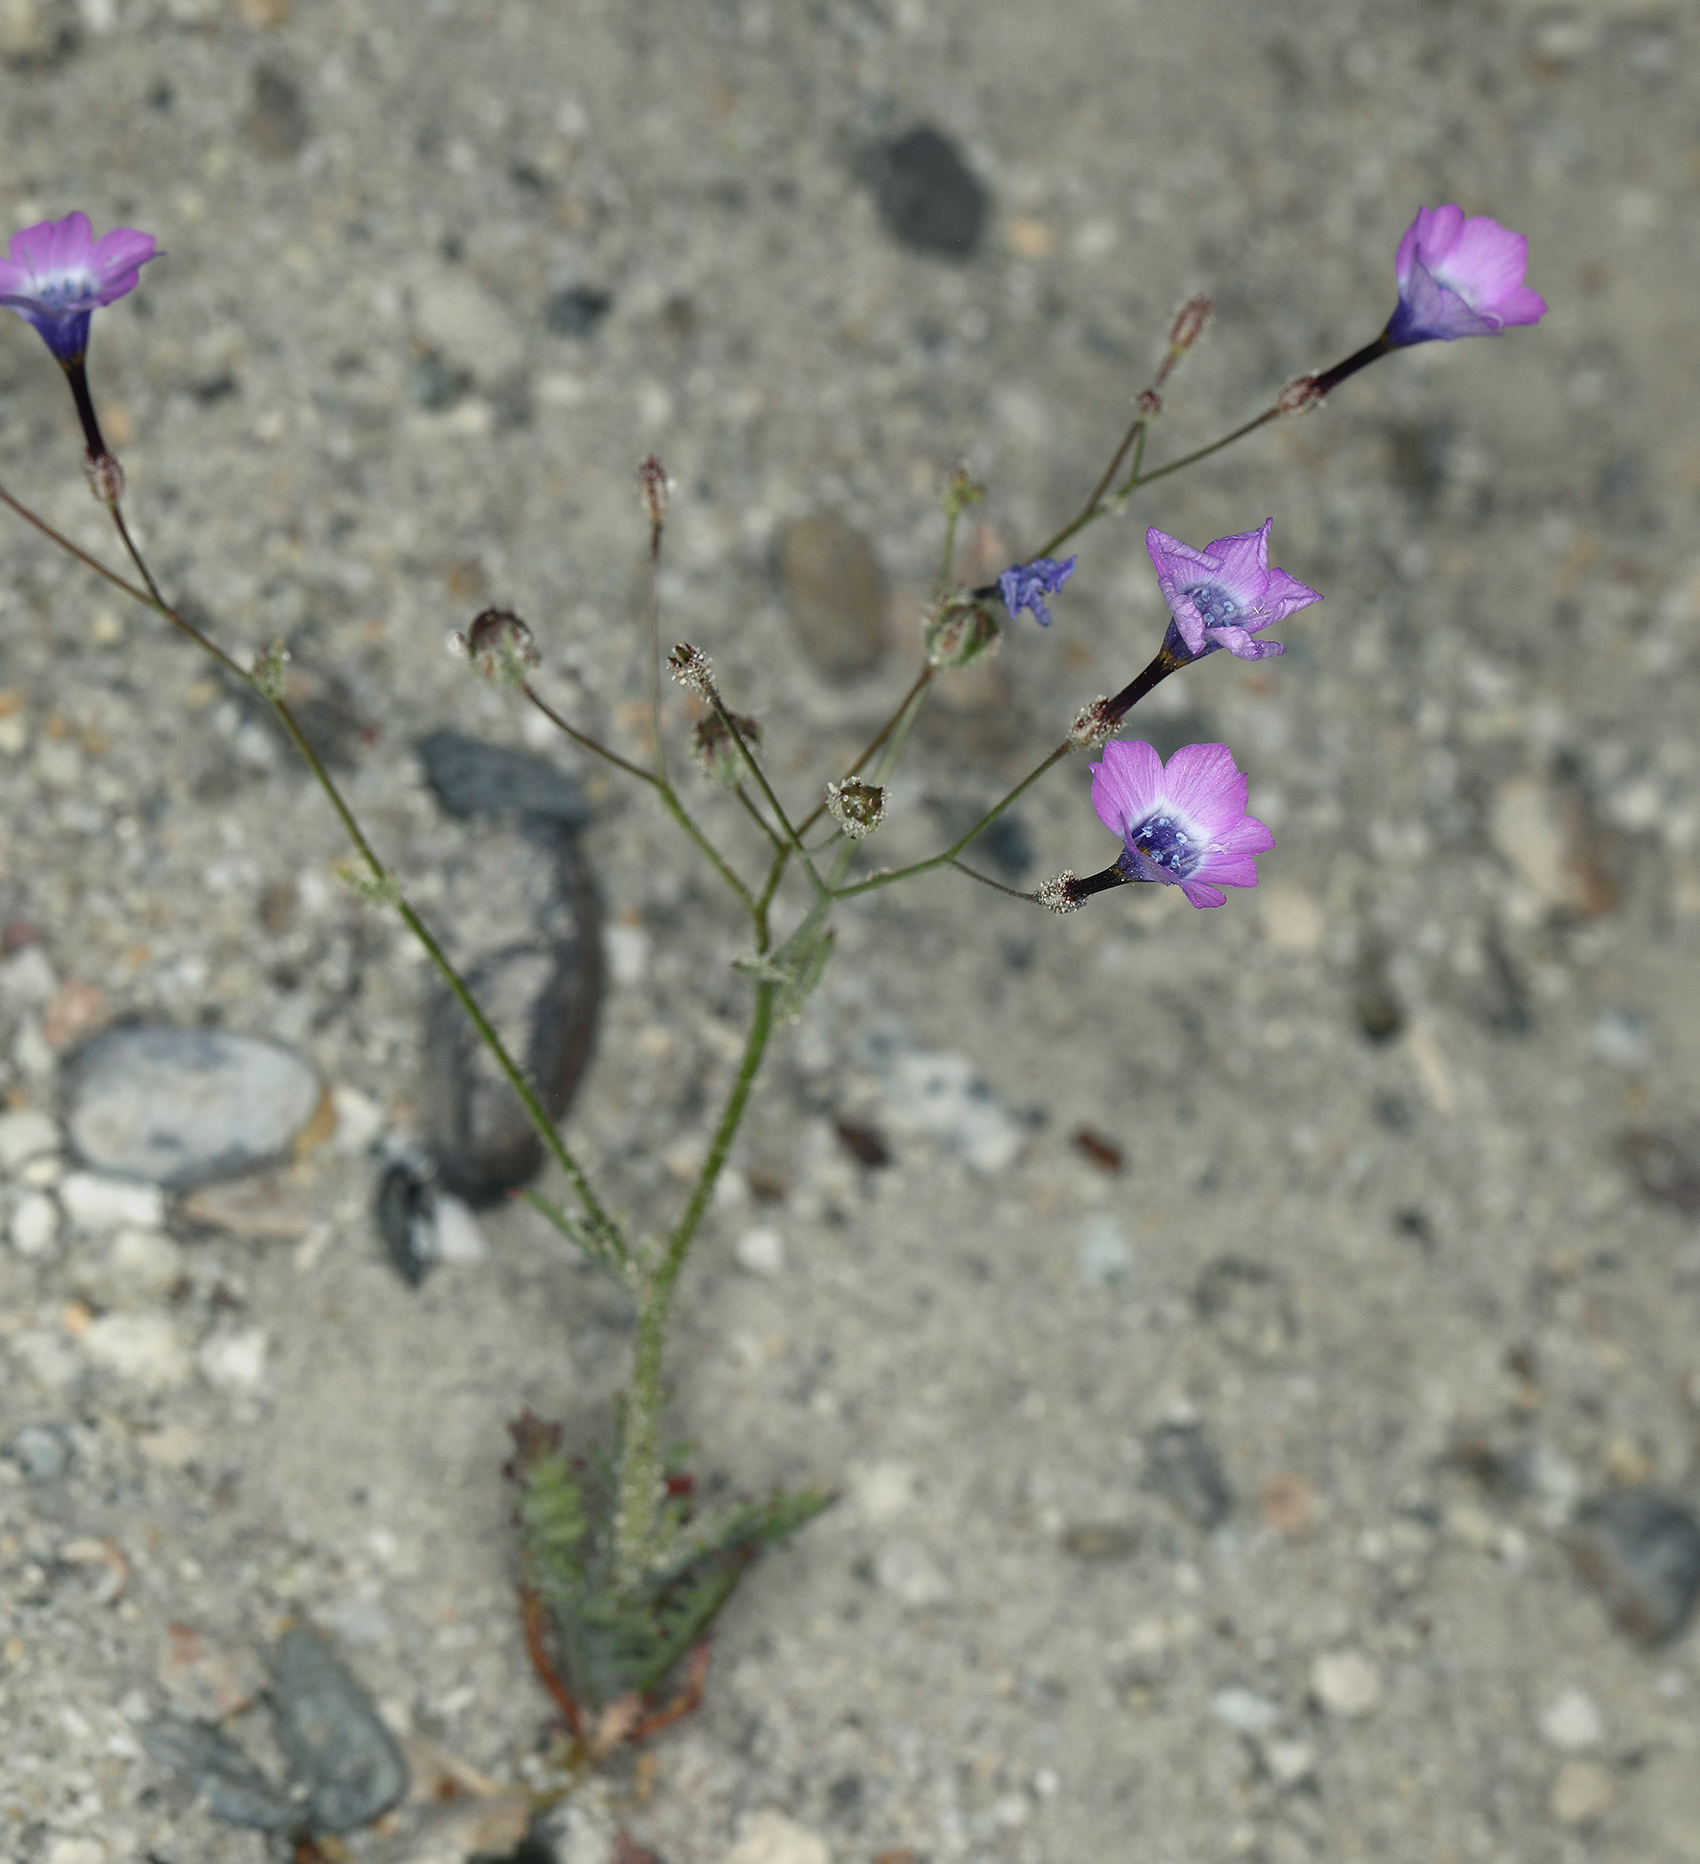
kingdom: Plantae
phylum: Tracheophyta
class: Magnoliopsida
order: Ericales
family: Polemoniaceae
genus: Gilia
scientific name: Gilia cana
